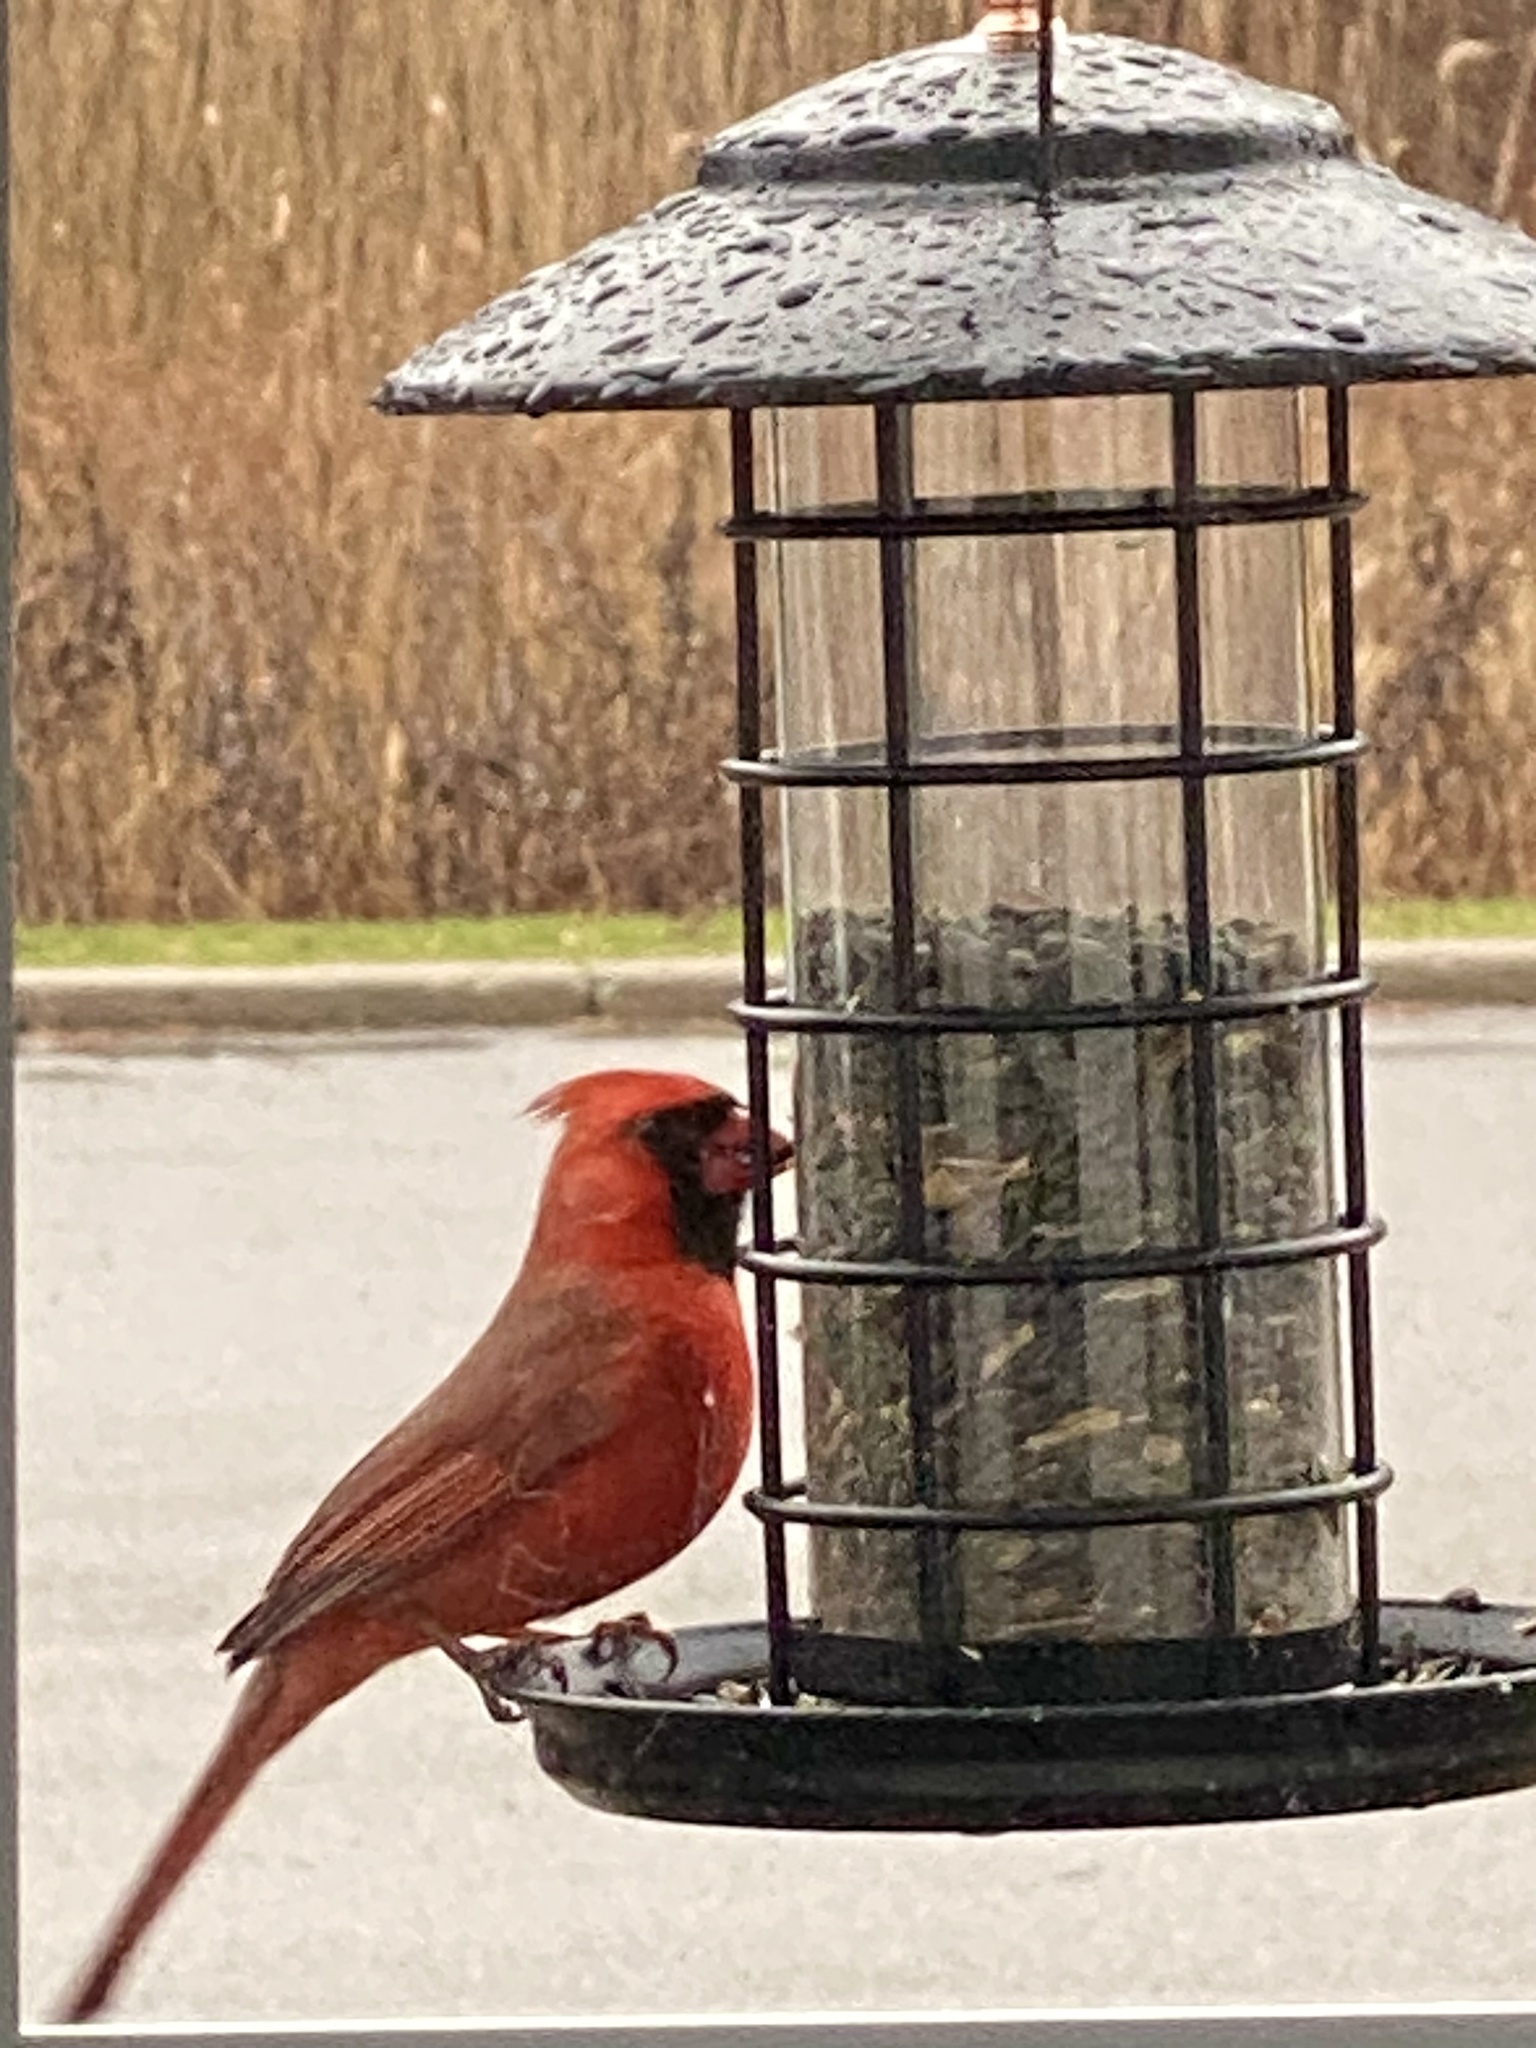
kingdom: Animalia
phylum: Chordata
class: Aves
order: Passeriformes
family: Cardinalidae
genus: Cardinalis
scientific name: Cardinalis cardinalis
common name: Northern cardinal
